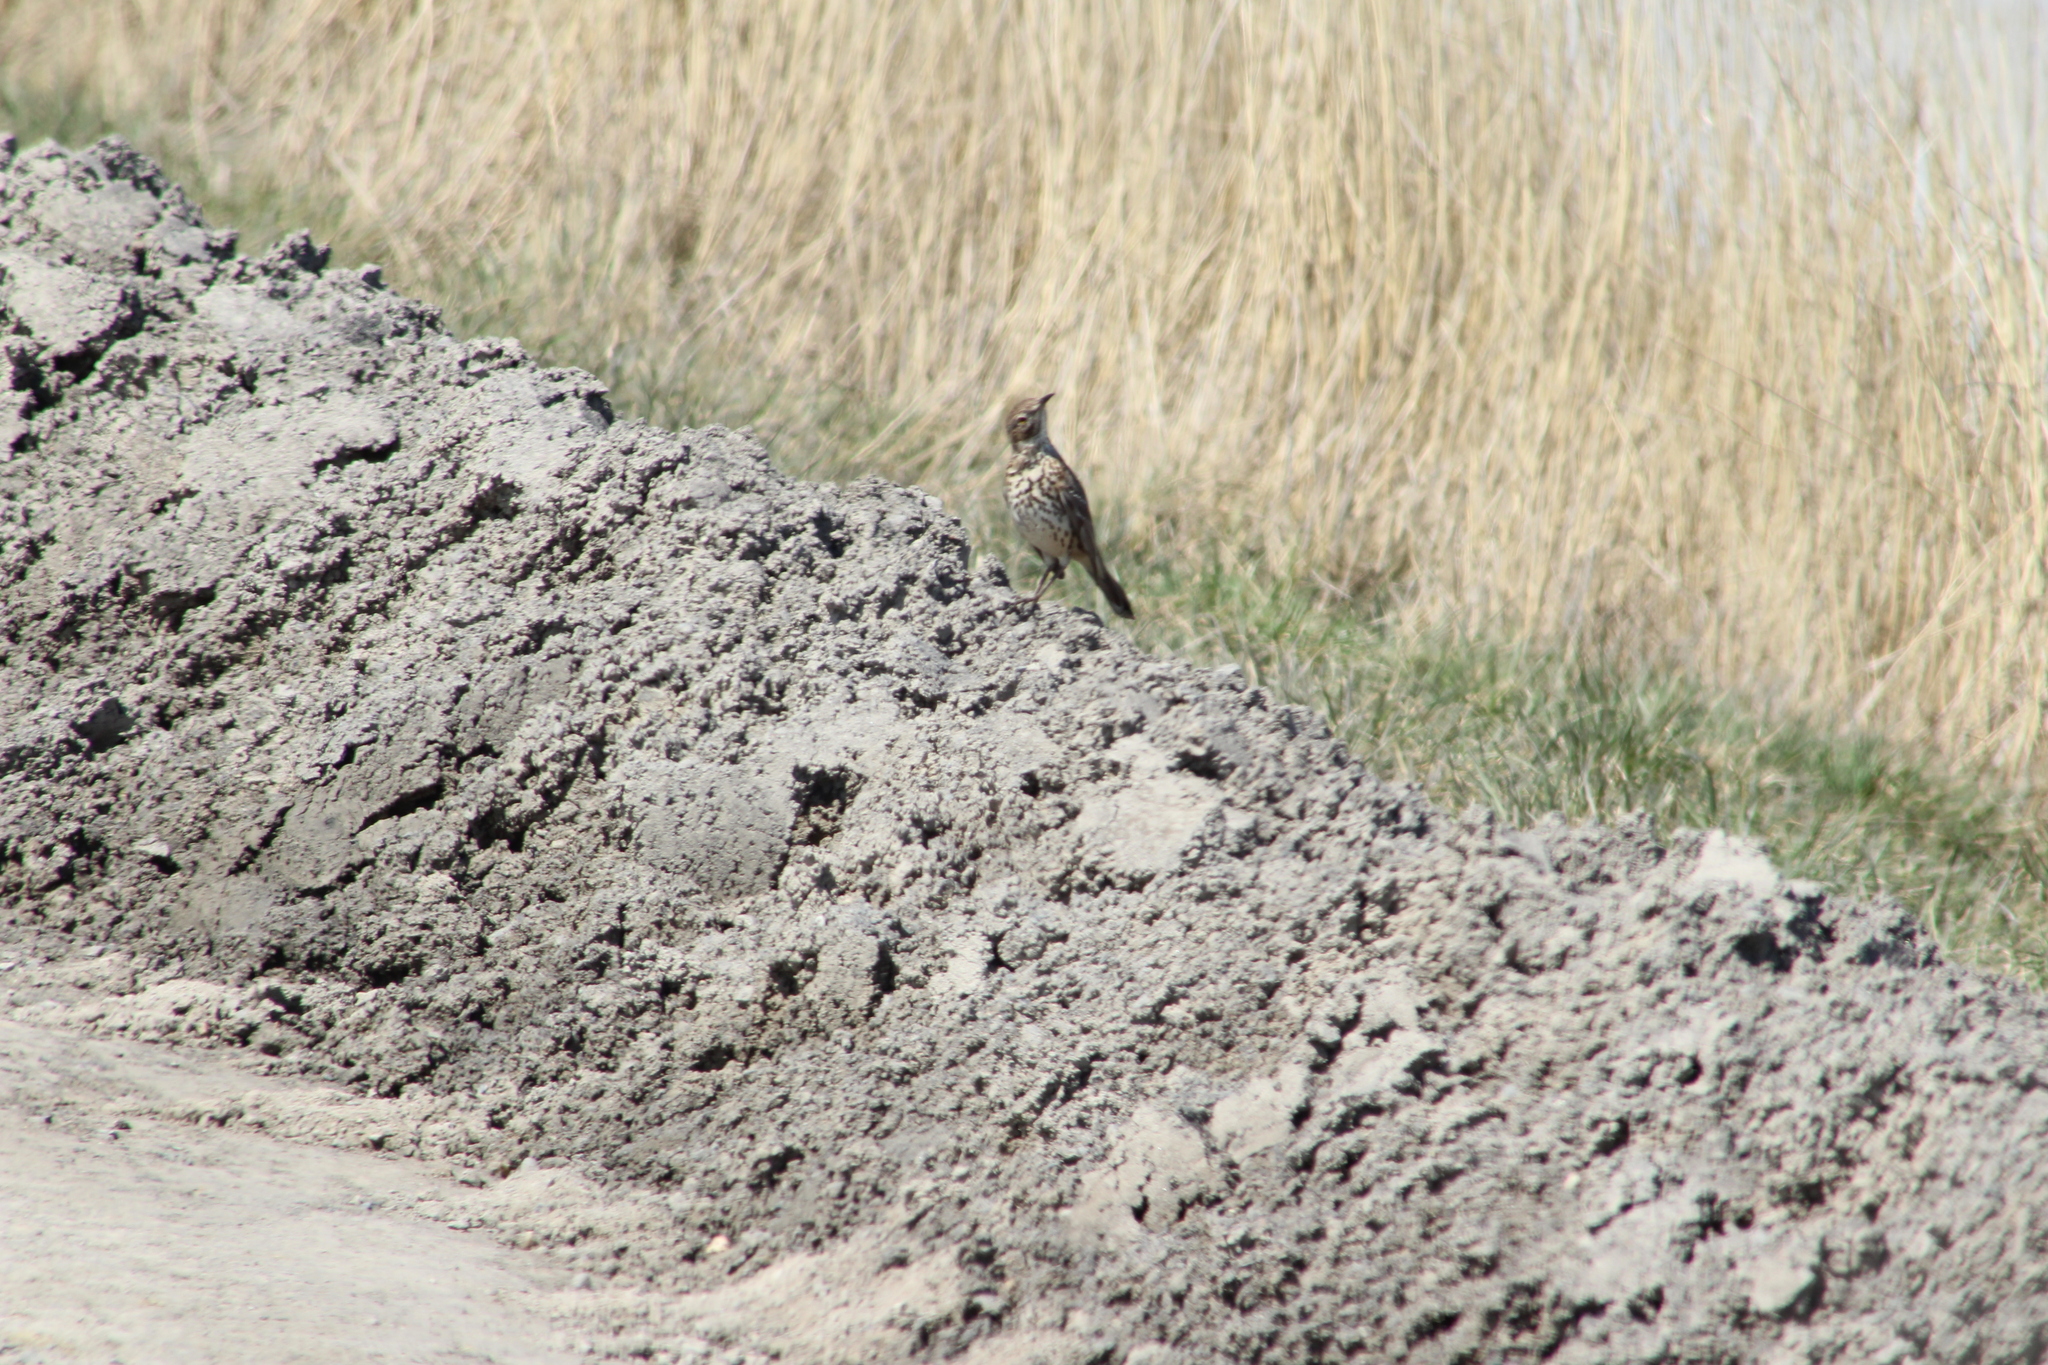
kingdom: Animalia
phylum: Chordata
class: Aves
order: Passeriformes
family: Mimidae
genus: Oreoscoptes
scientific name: Oreoscoptes montanus
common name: Sage thrasher
